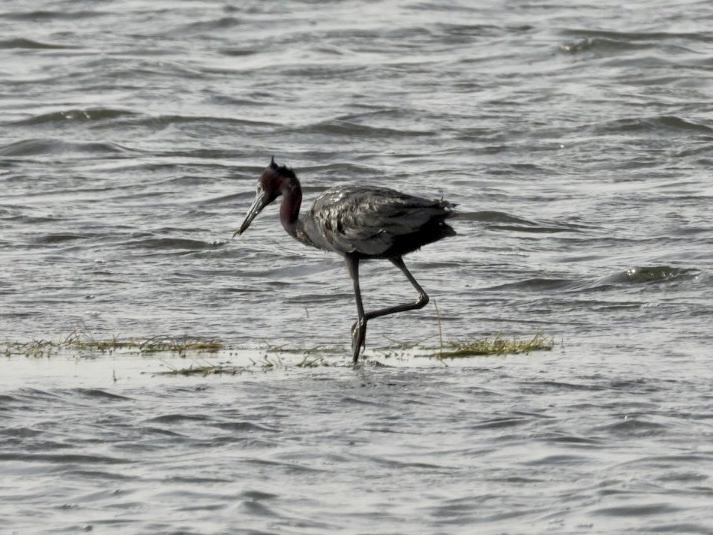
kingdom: Animalia
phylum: Chordata
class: Aves
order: Pelecaniformes
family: Ardeidae
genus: Egretta
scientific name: Egretta caerulea
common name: Little blue heron
